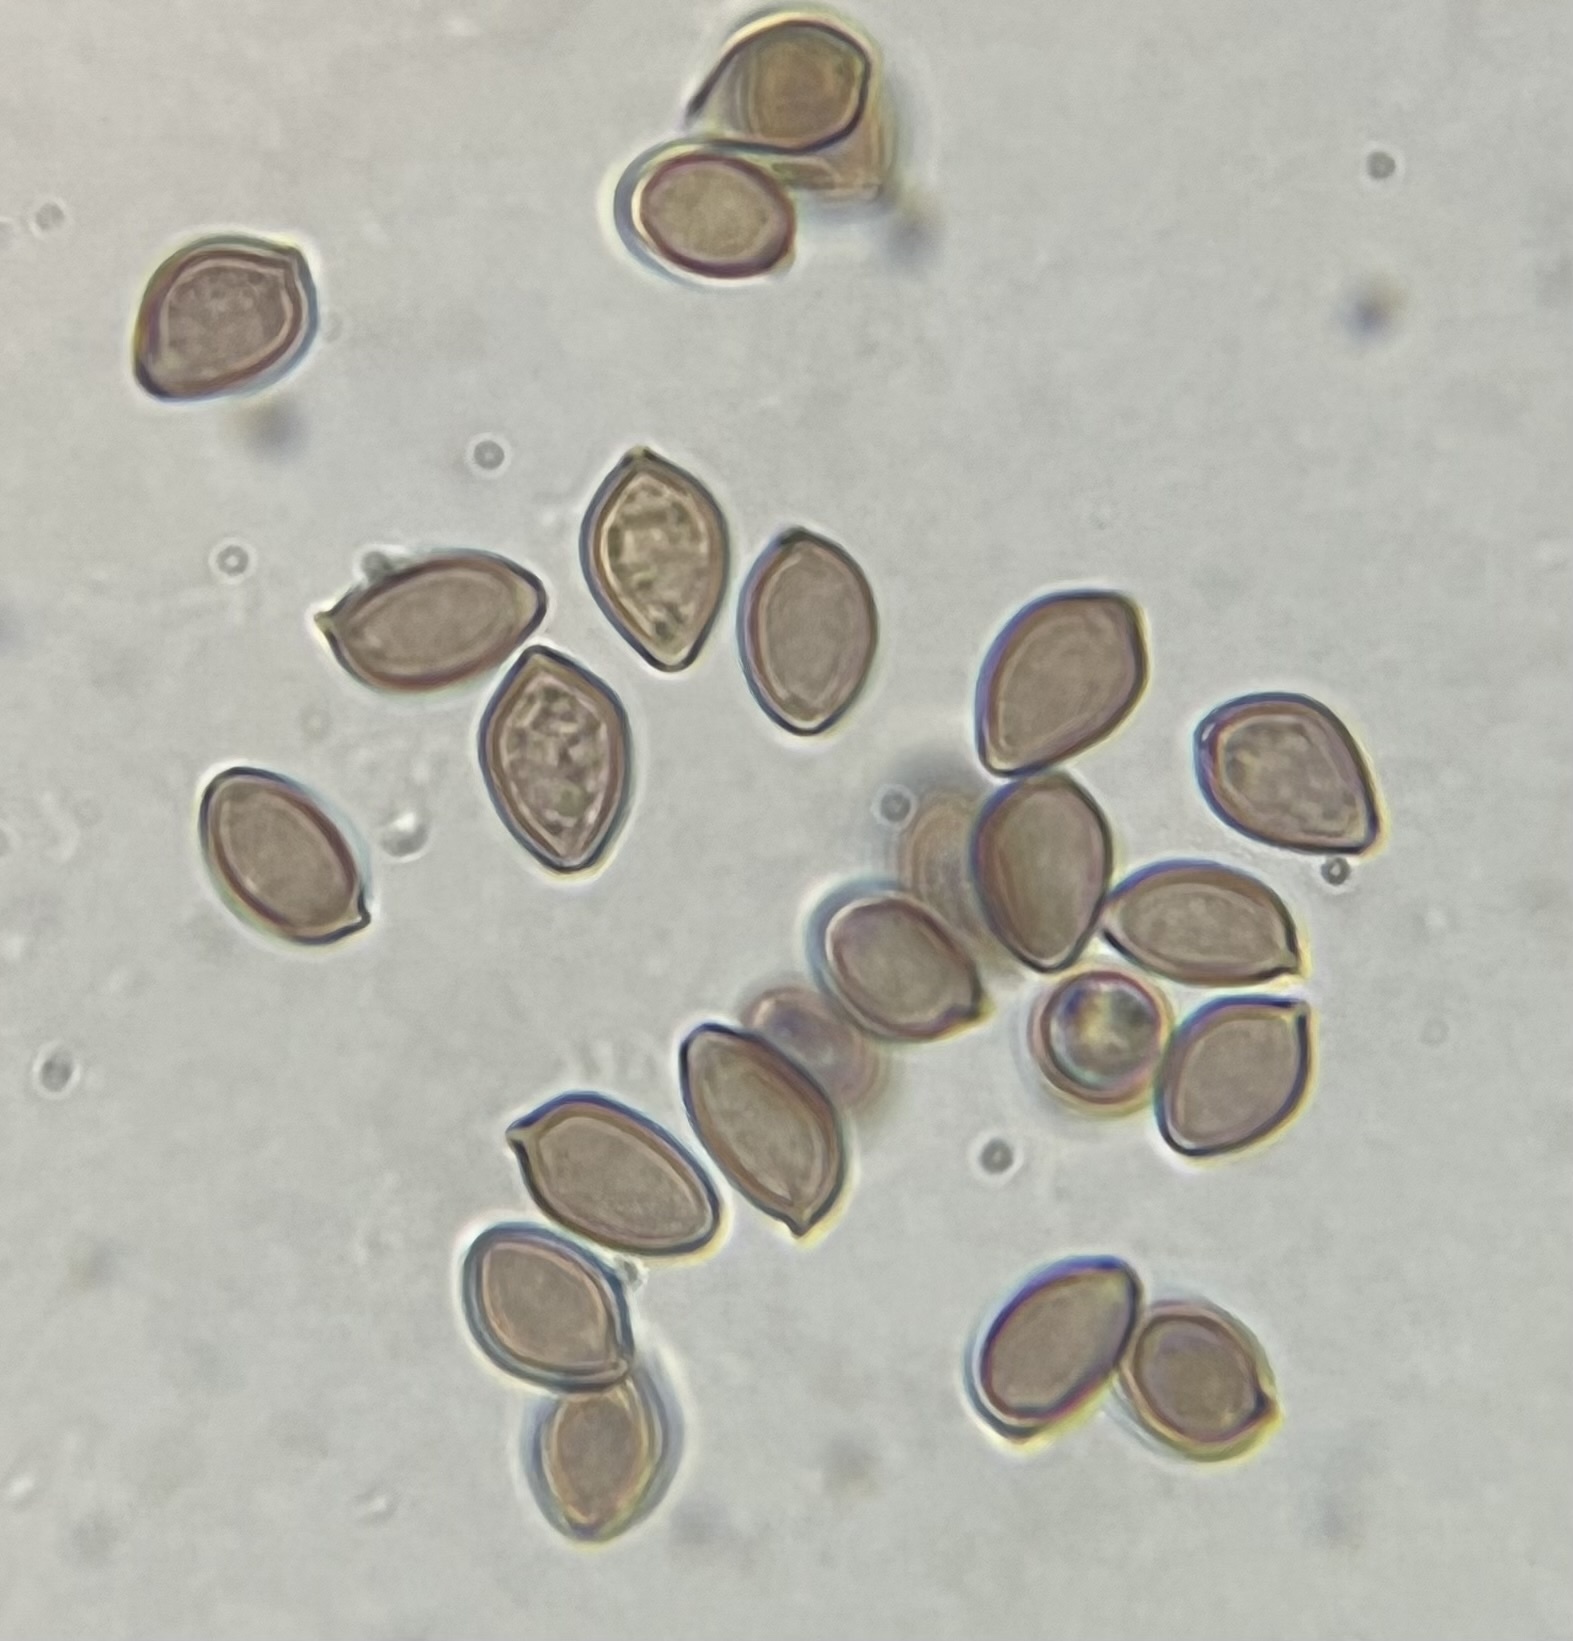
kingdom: Fungi
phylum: Basidiomycota
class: Agaricomycetes
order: Agaricales
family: Hymenogastraceae
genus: Psilocybe
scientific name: Psilocybe ovoideocystidiata
